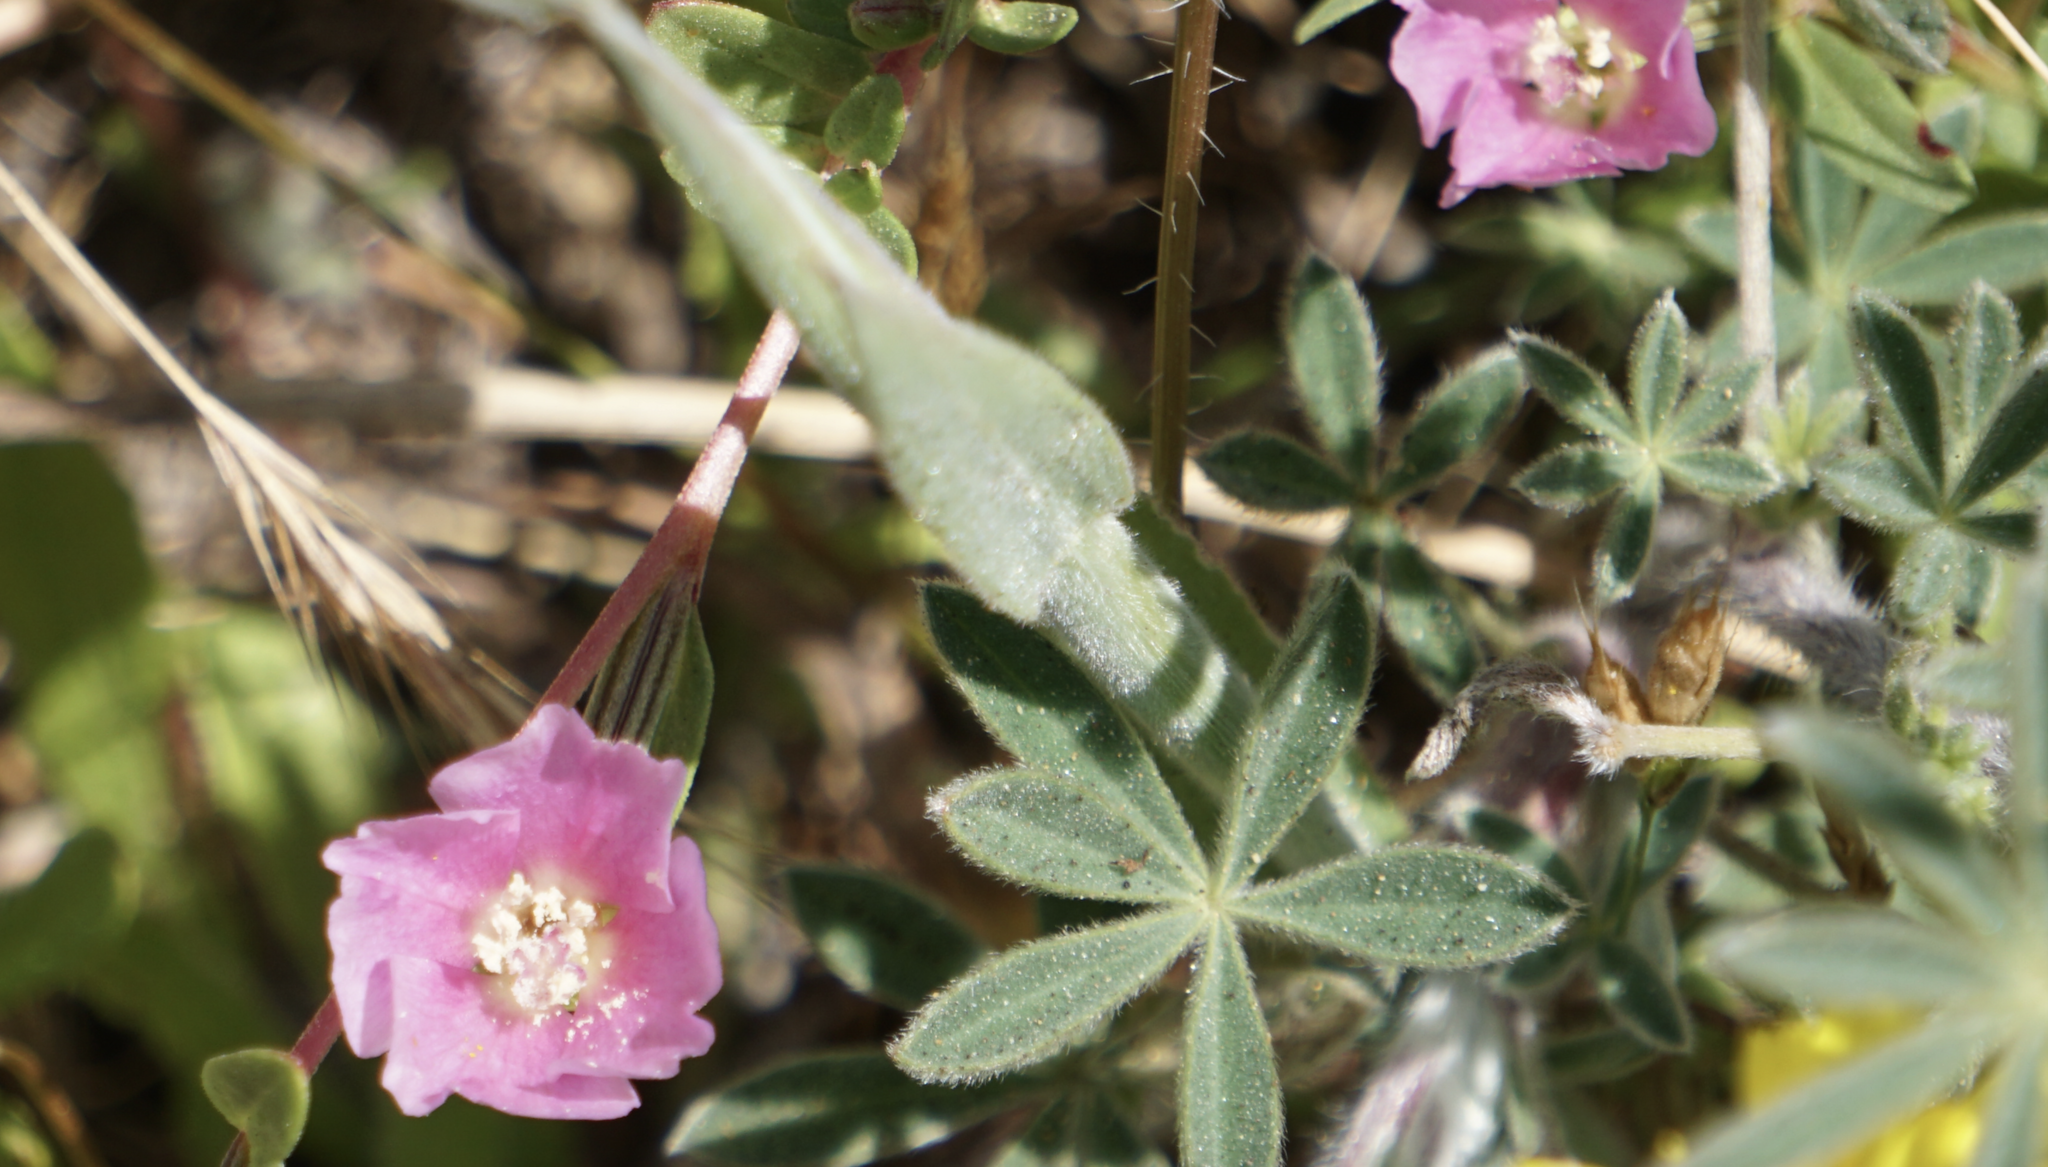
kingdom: Plantae
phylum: Tracheophyta
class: Magnoliopsida
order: Myrtales
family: Onagraceae
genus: Clarkia
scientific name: Clarkia davyi
